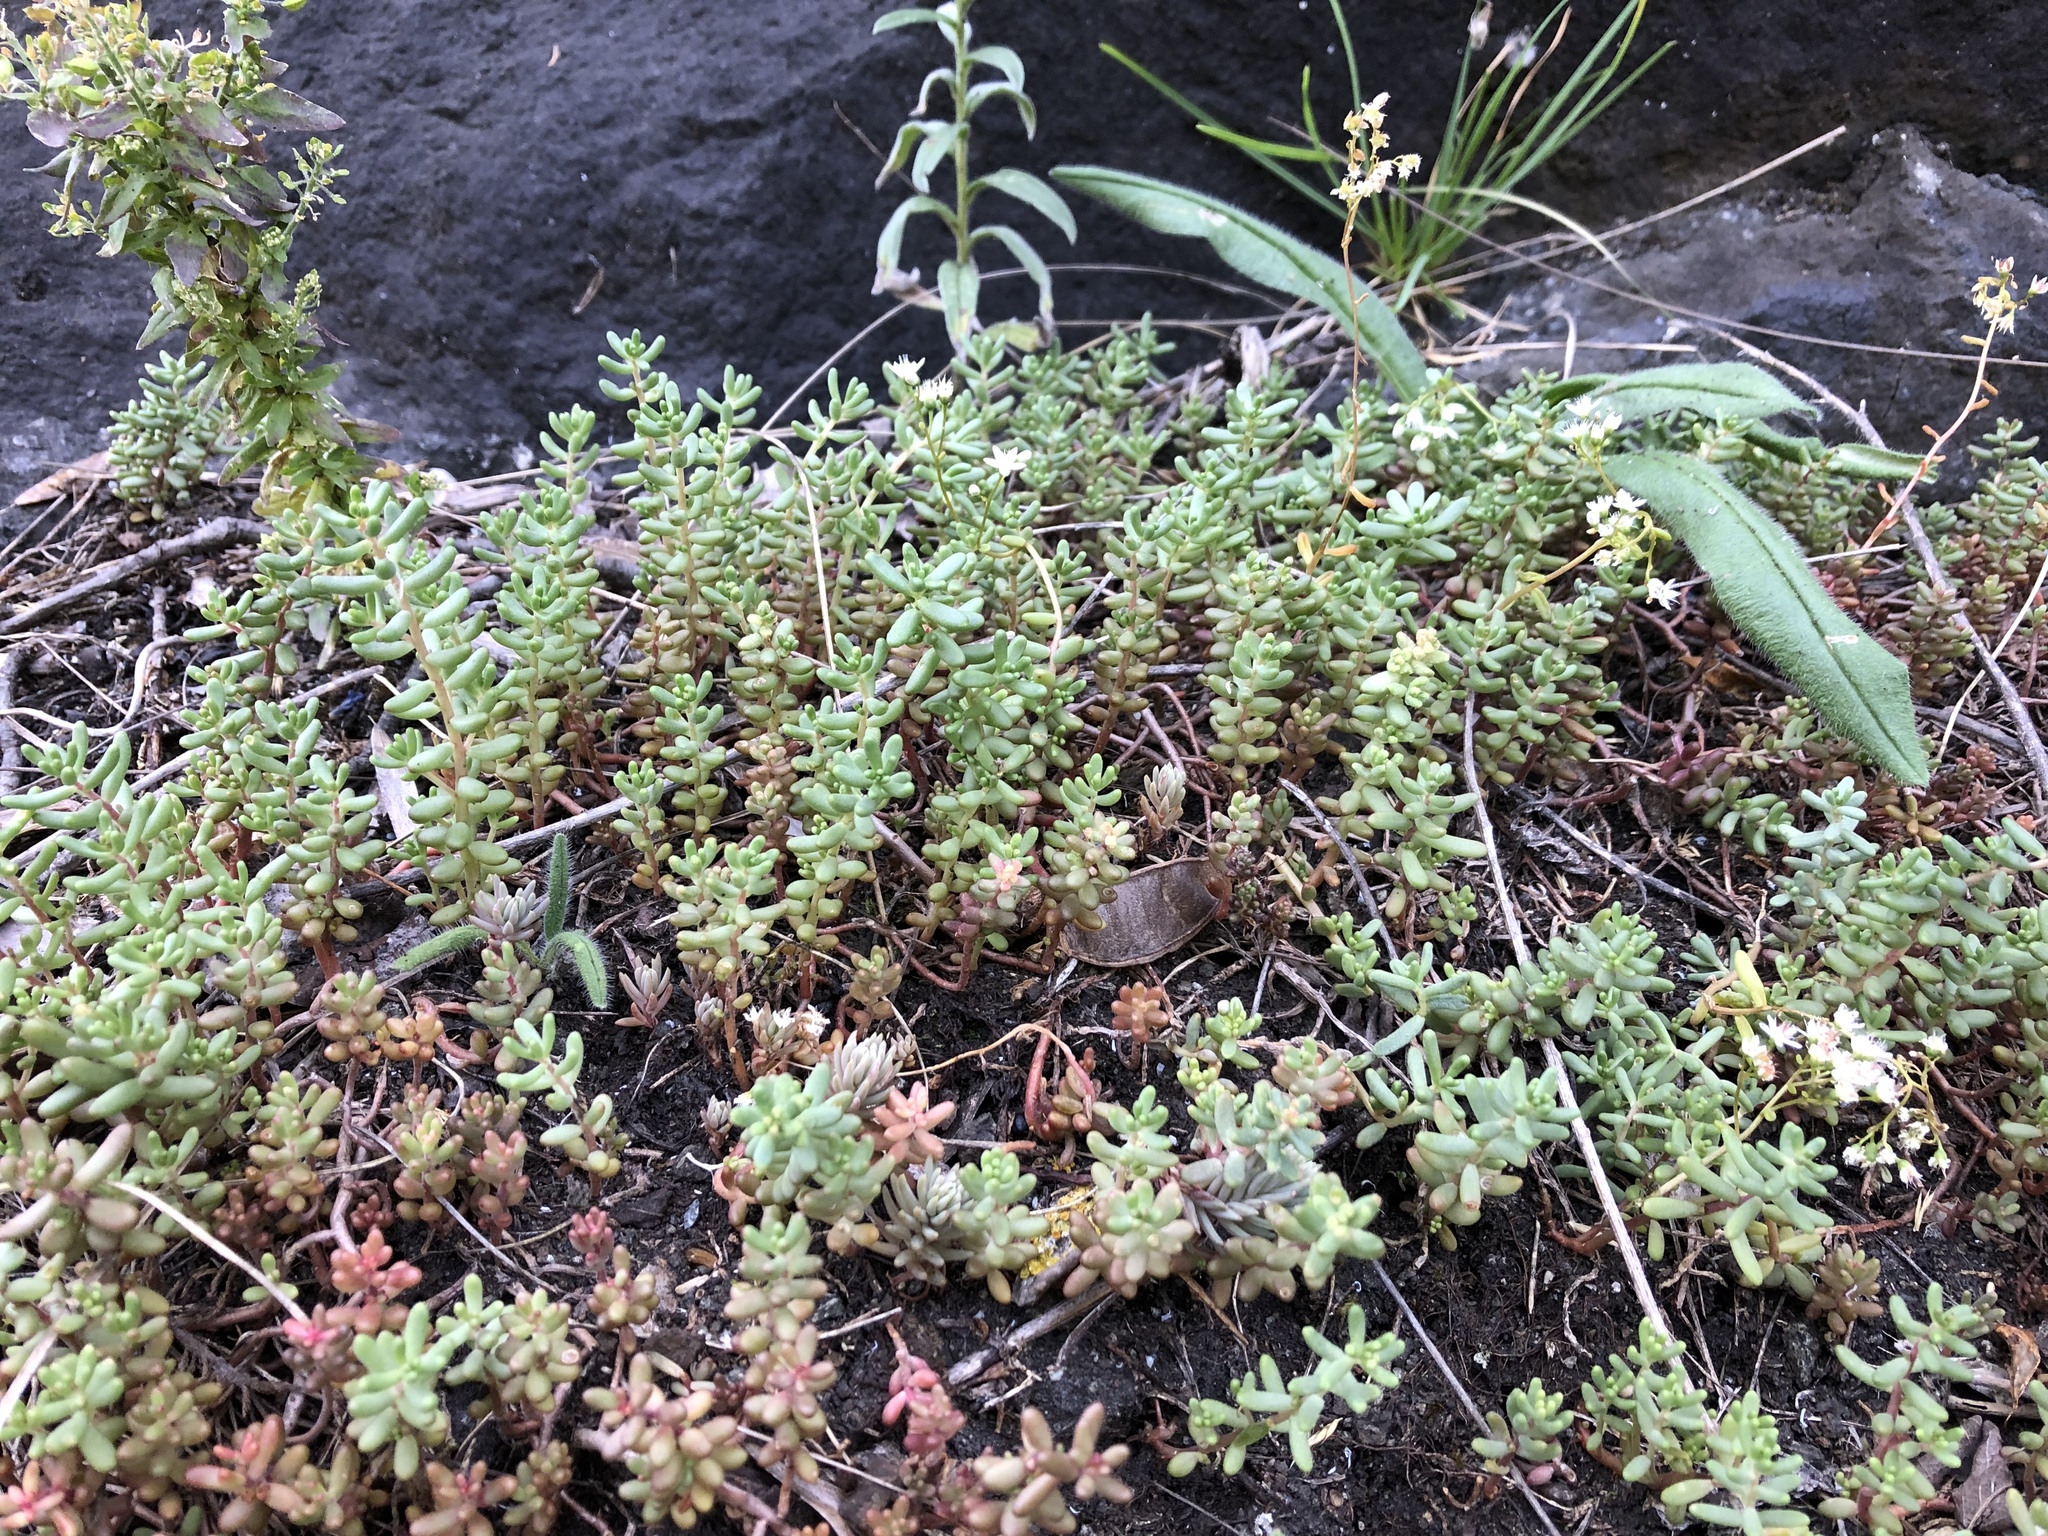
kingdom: Plantae
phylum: Tracheophyta
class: Magnoliopsida
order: Saxifragales
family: Crassulaceae
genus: Sedum
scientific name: Sedum album
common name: White stonecrop
